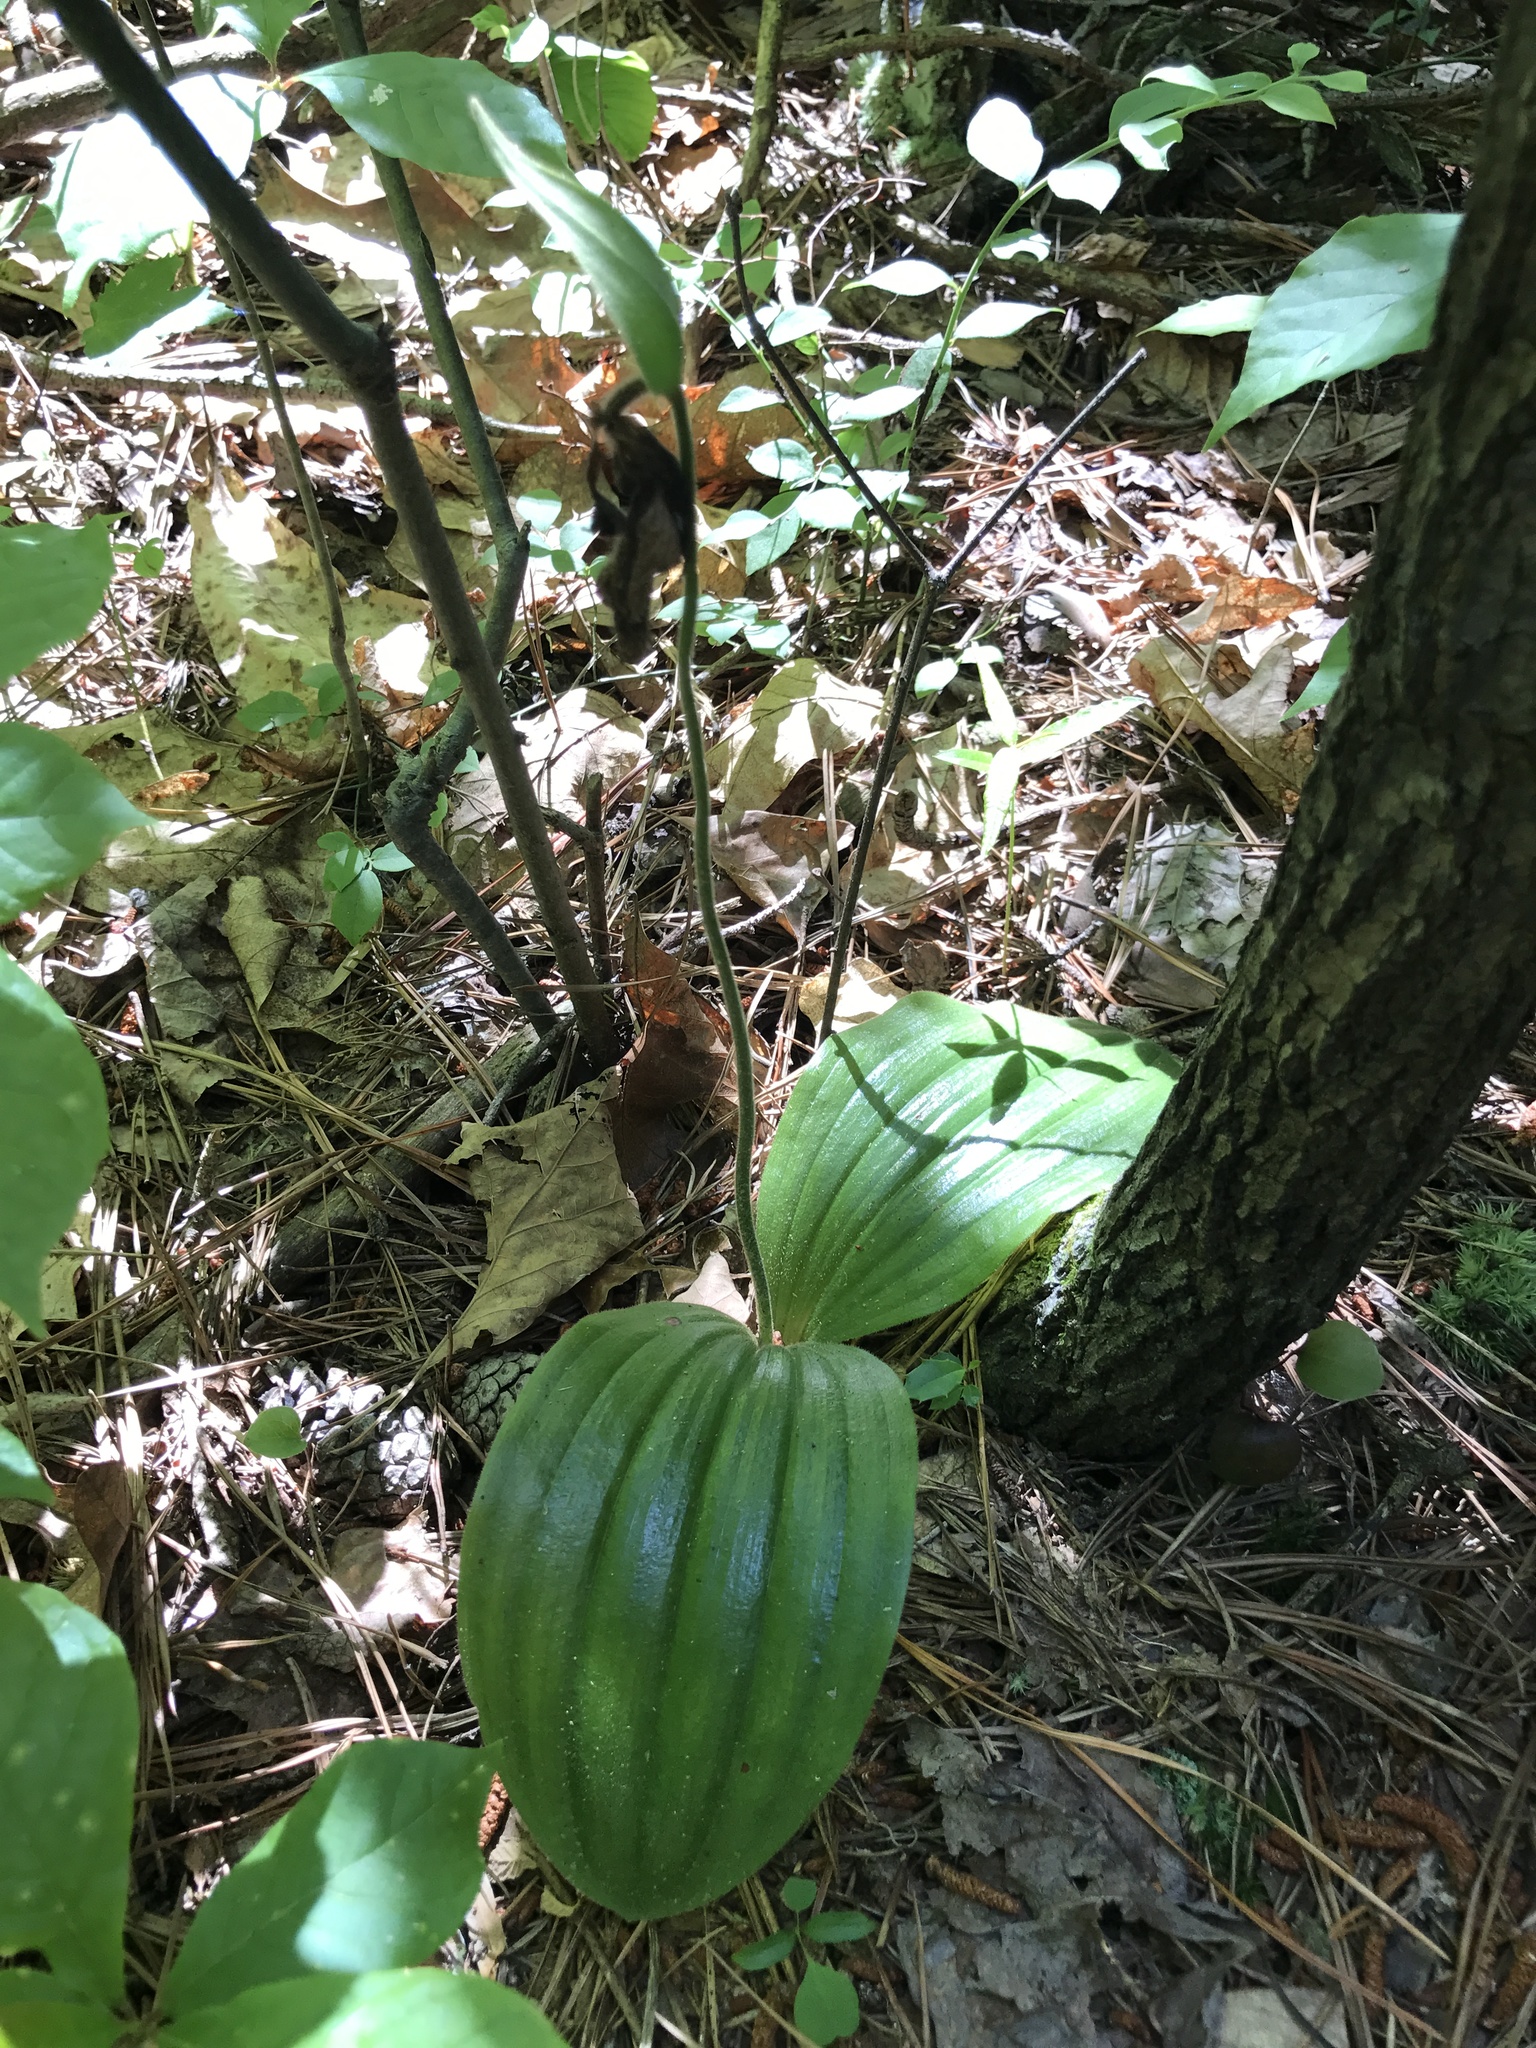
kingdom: Plantae
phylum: Tracheophyta
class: Liliopsida
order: Asparagales
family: Orchidaceae
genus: Cypripedium
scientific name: Cypripedium acaule
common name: Pink lady's-slipper
